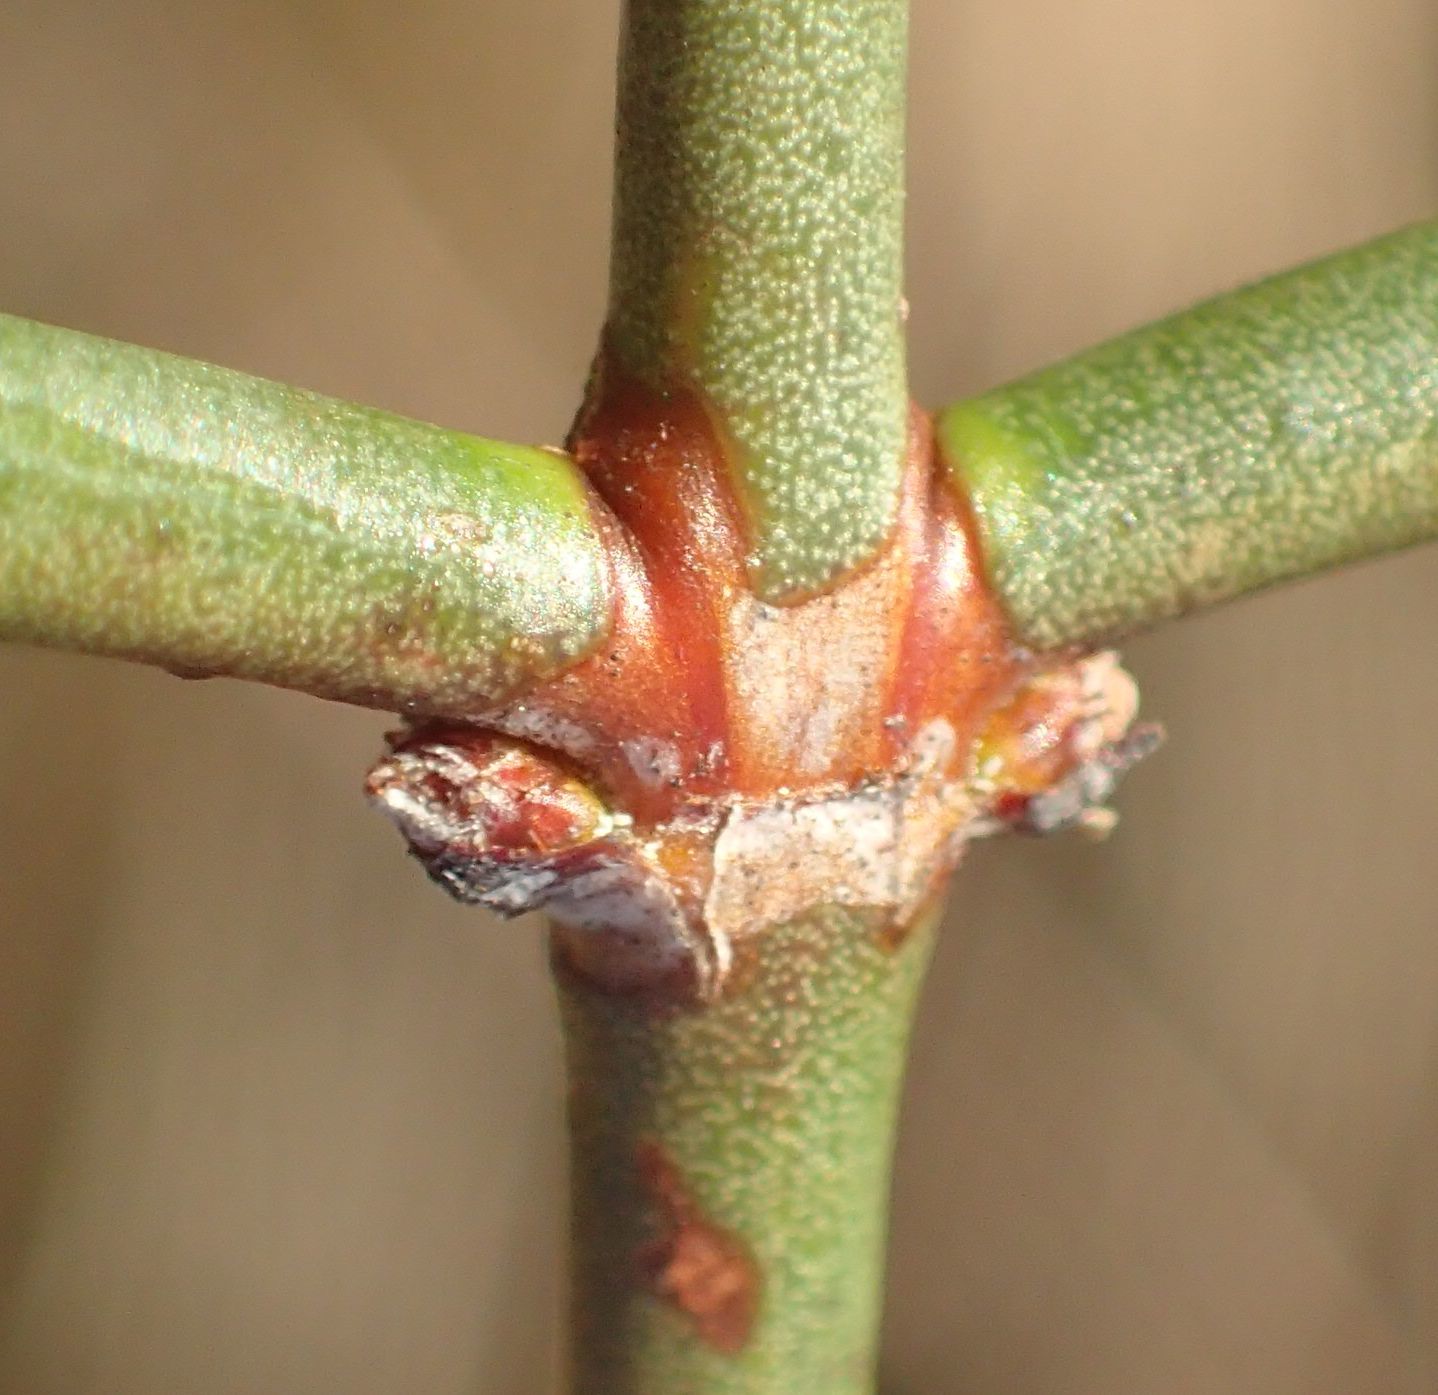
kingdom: Plantae
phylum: Tracheophyta
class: Magnoliopsida
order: Rosales
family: Rhamnaceae
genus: Discaria
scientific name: Discaria toumatou
